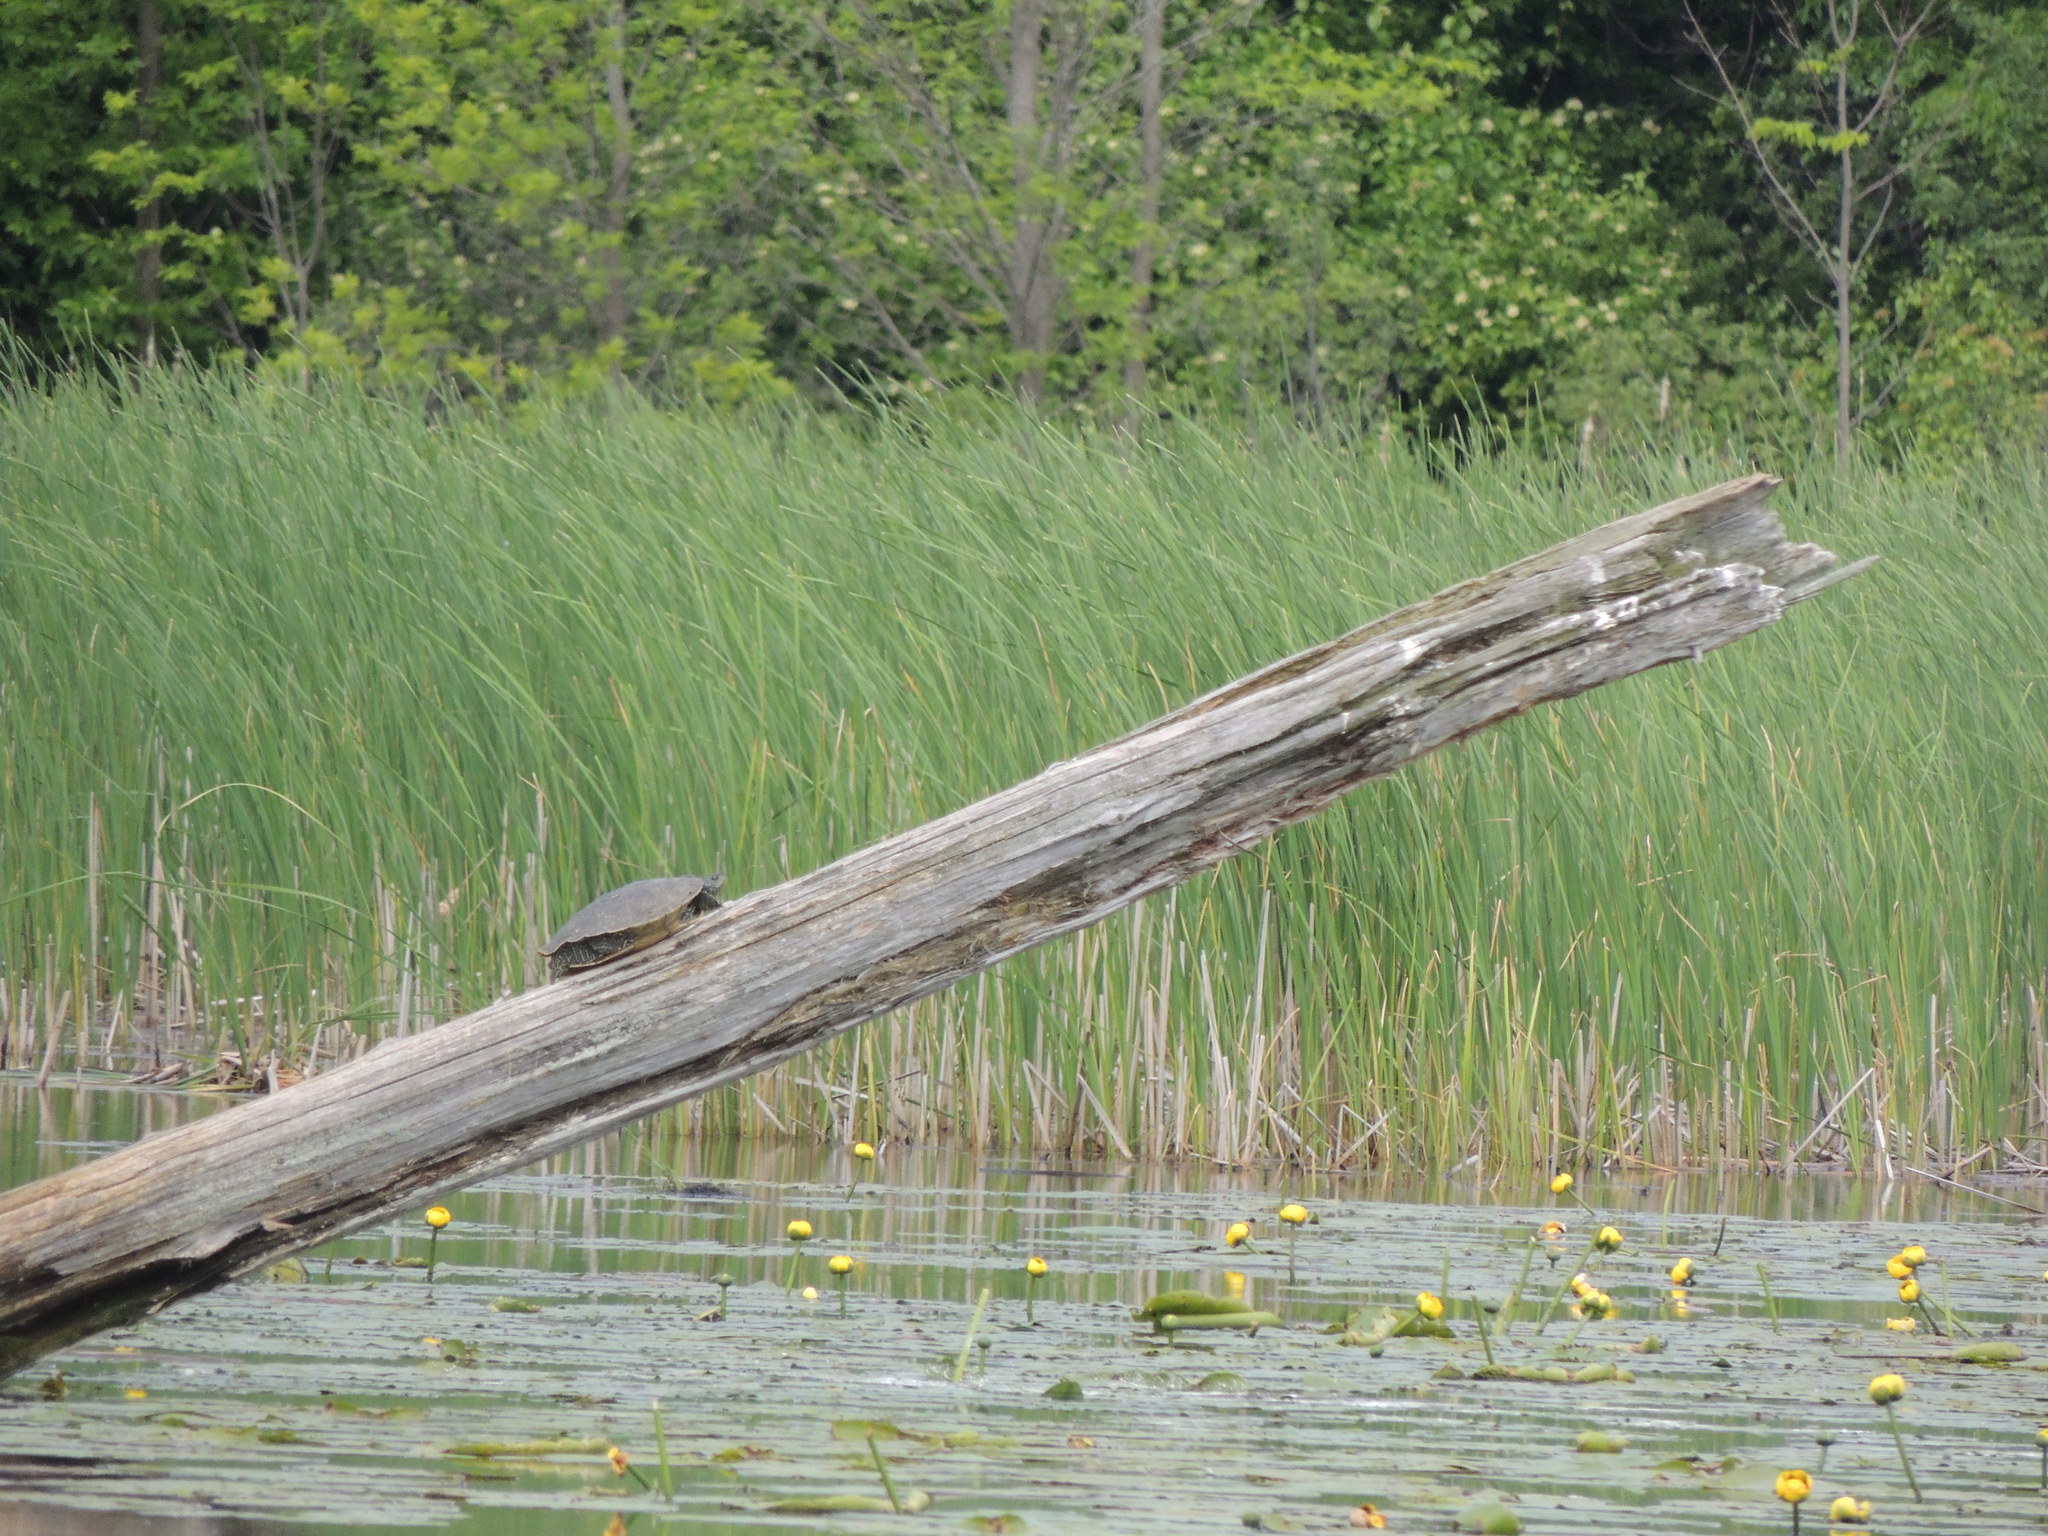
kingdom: Animalia
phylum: Chordata
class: Testudines
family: Emydidae
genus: Graptemys
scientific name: Graptemys geographica
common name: Common map turtle
